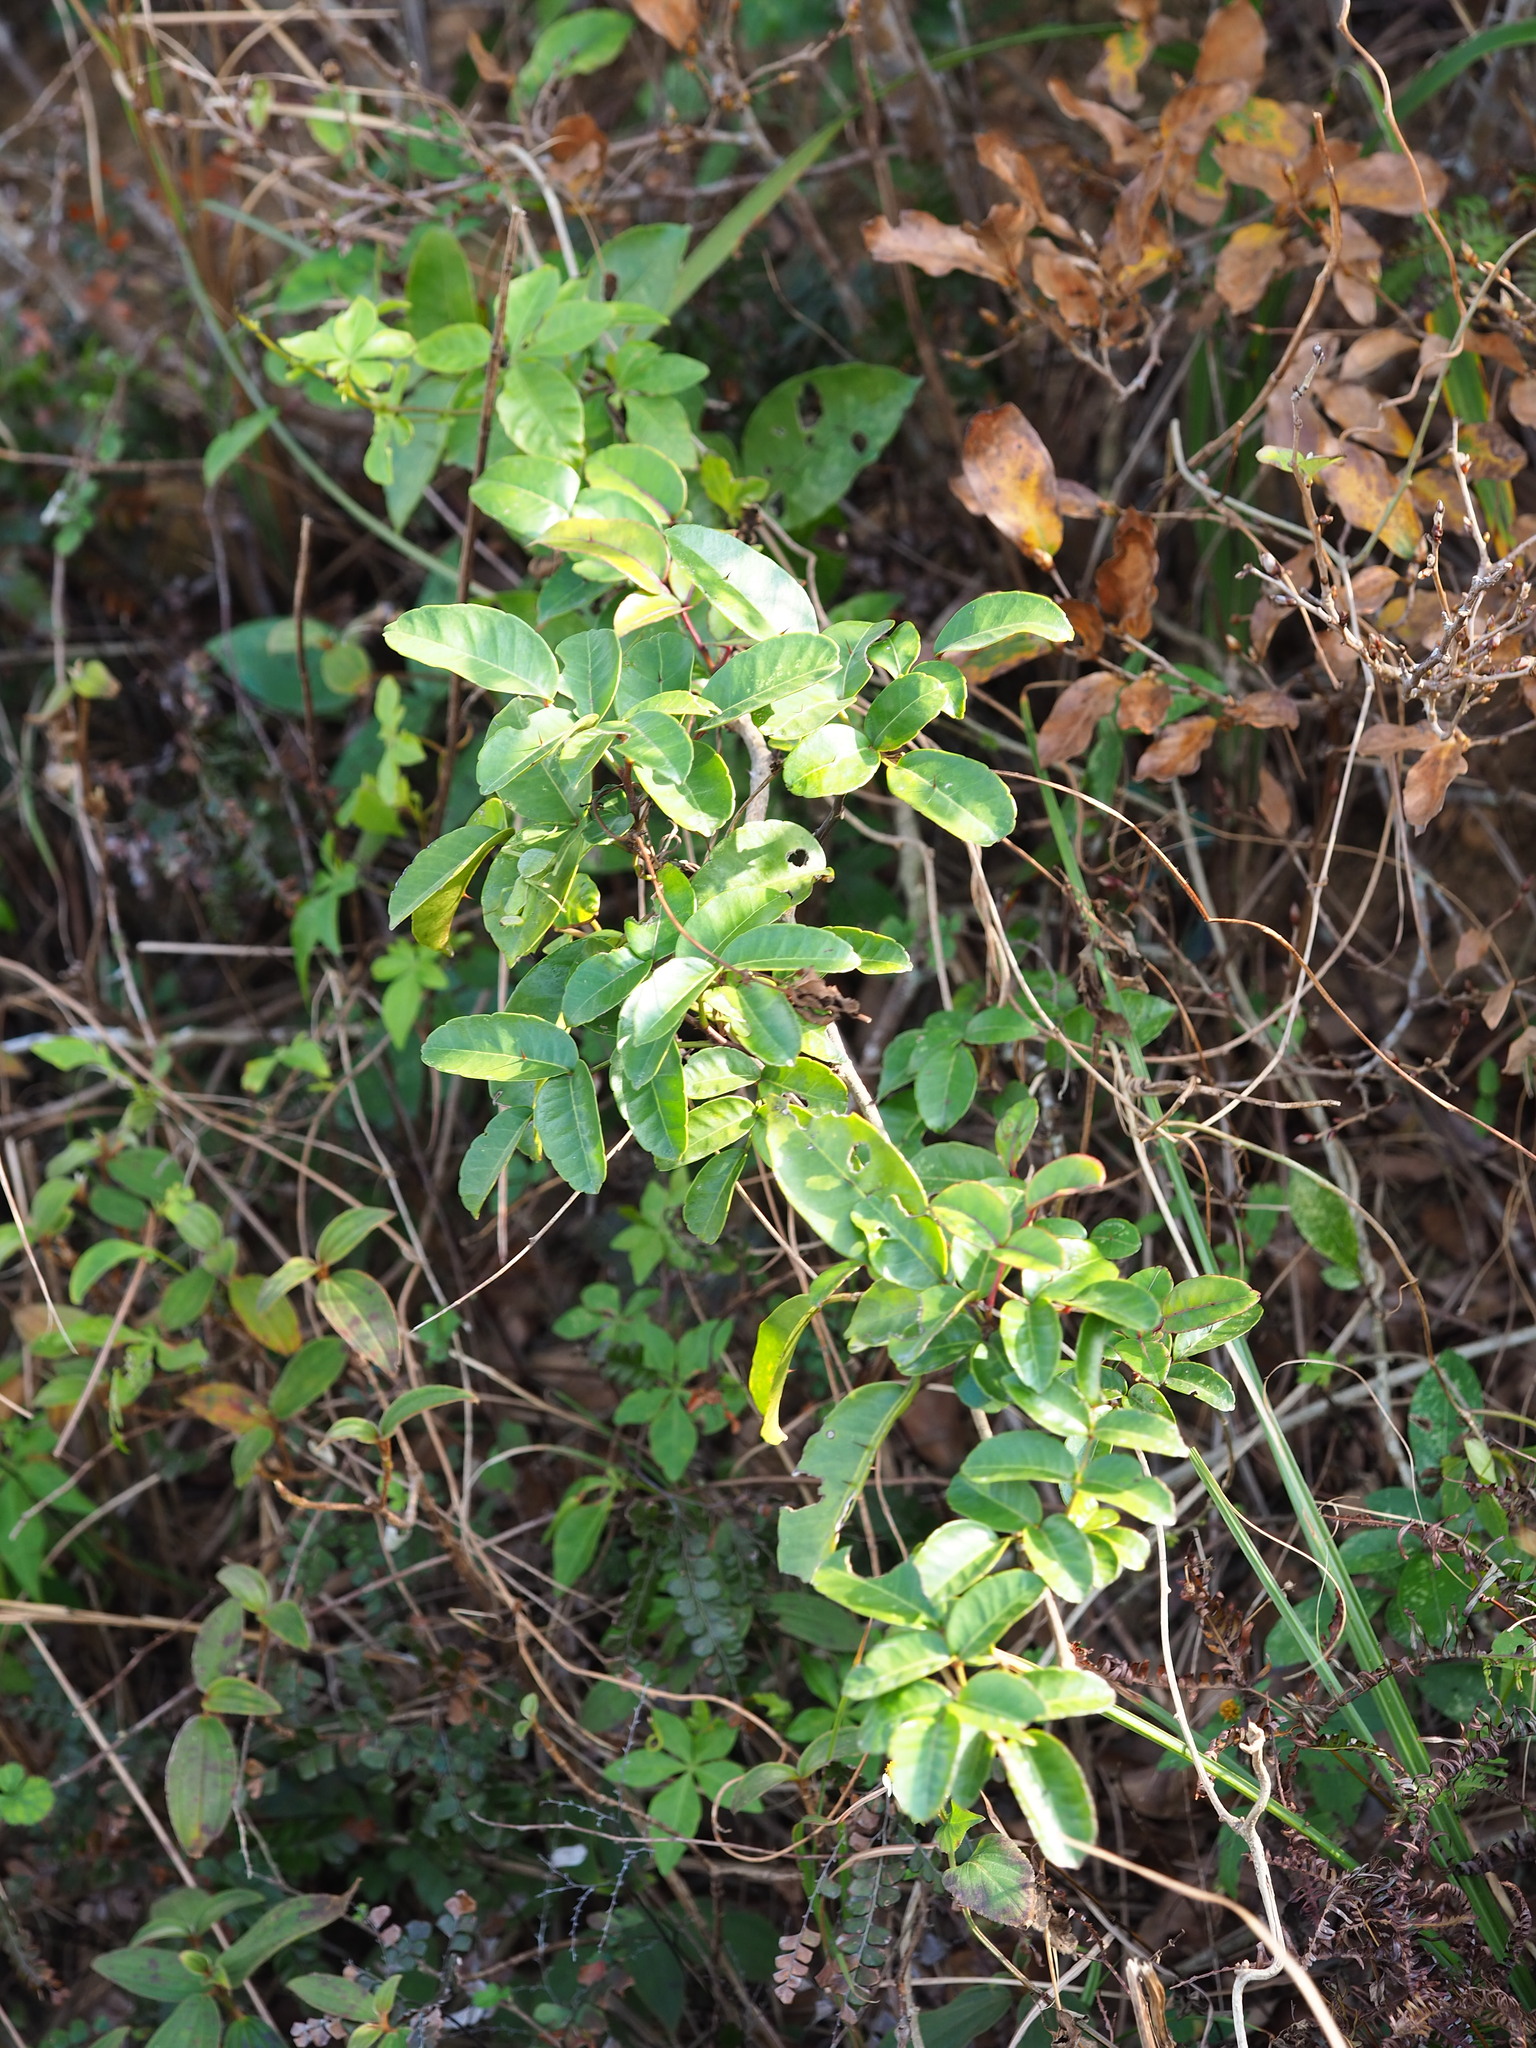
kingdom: Plantae
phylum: Tracheophyta
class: Magnoliopsida
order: Sapindales
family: Rutaceae
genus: Zanthoxylum
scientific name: Zanthoxylum nitidum
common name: Shiny-leaf prickly-ash
